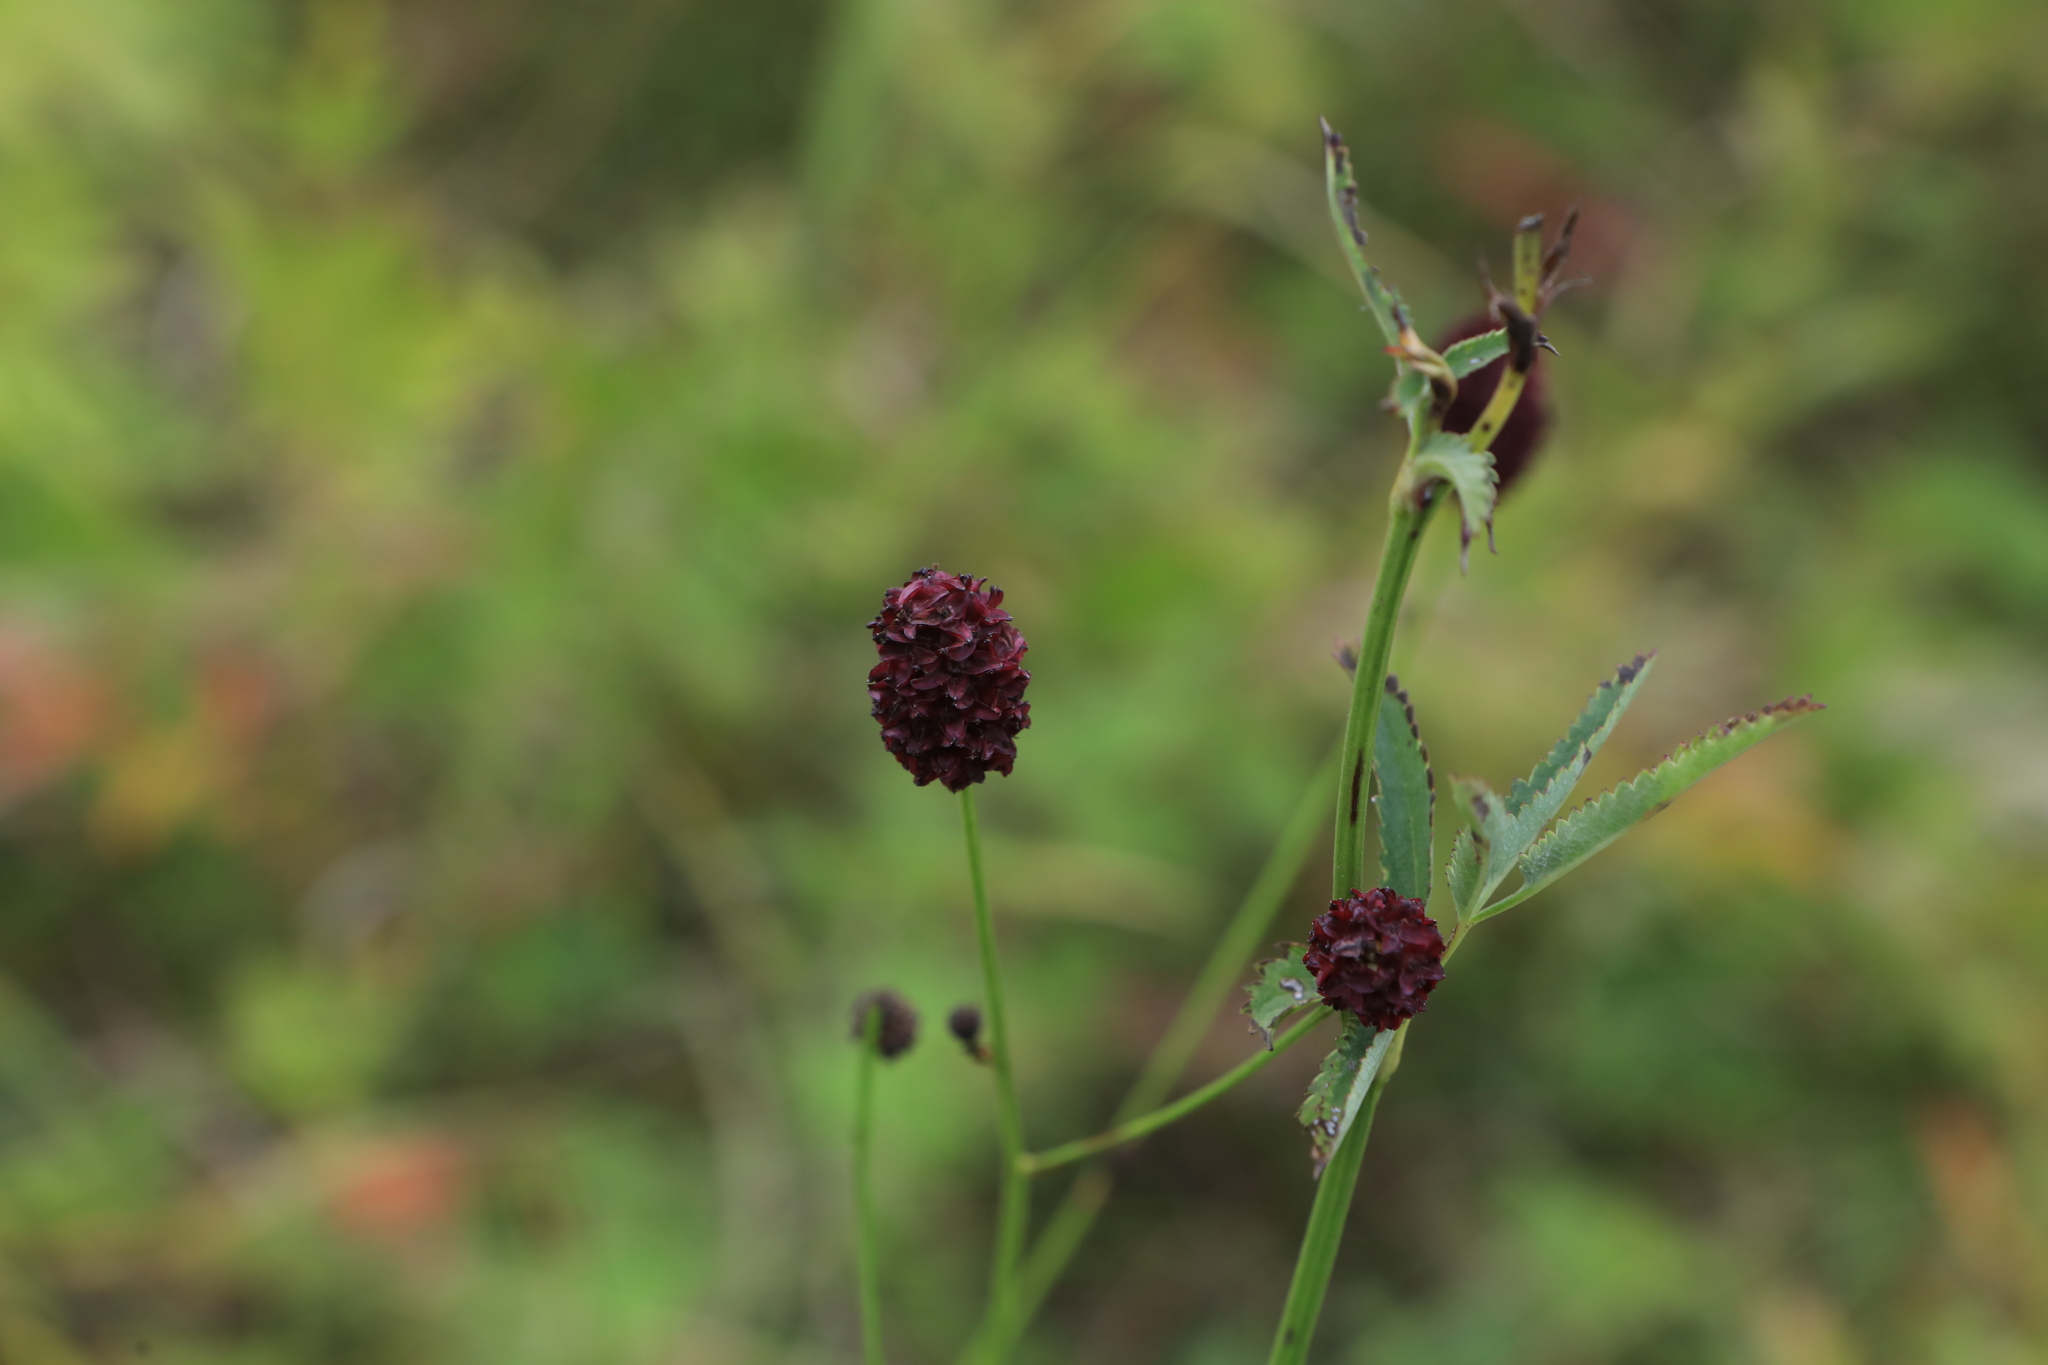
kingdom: Plantae
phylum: Tracheophyta
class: Magnoliopsida
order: Rosales
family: Rosaceae
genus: Sanguisorba
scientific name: Sanguisorba officinalis
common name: Great burnet
